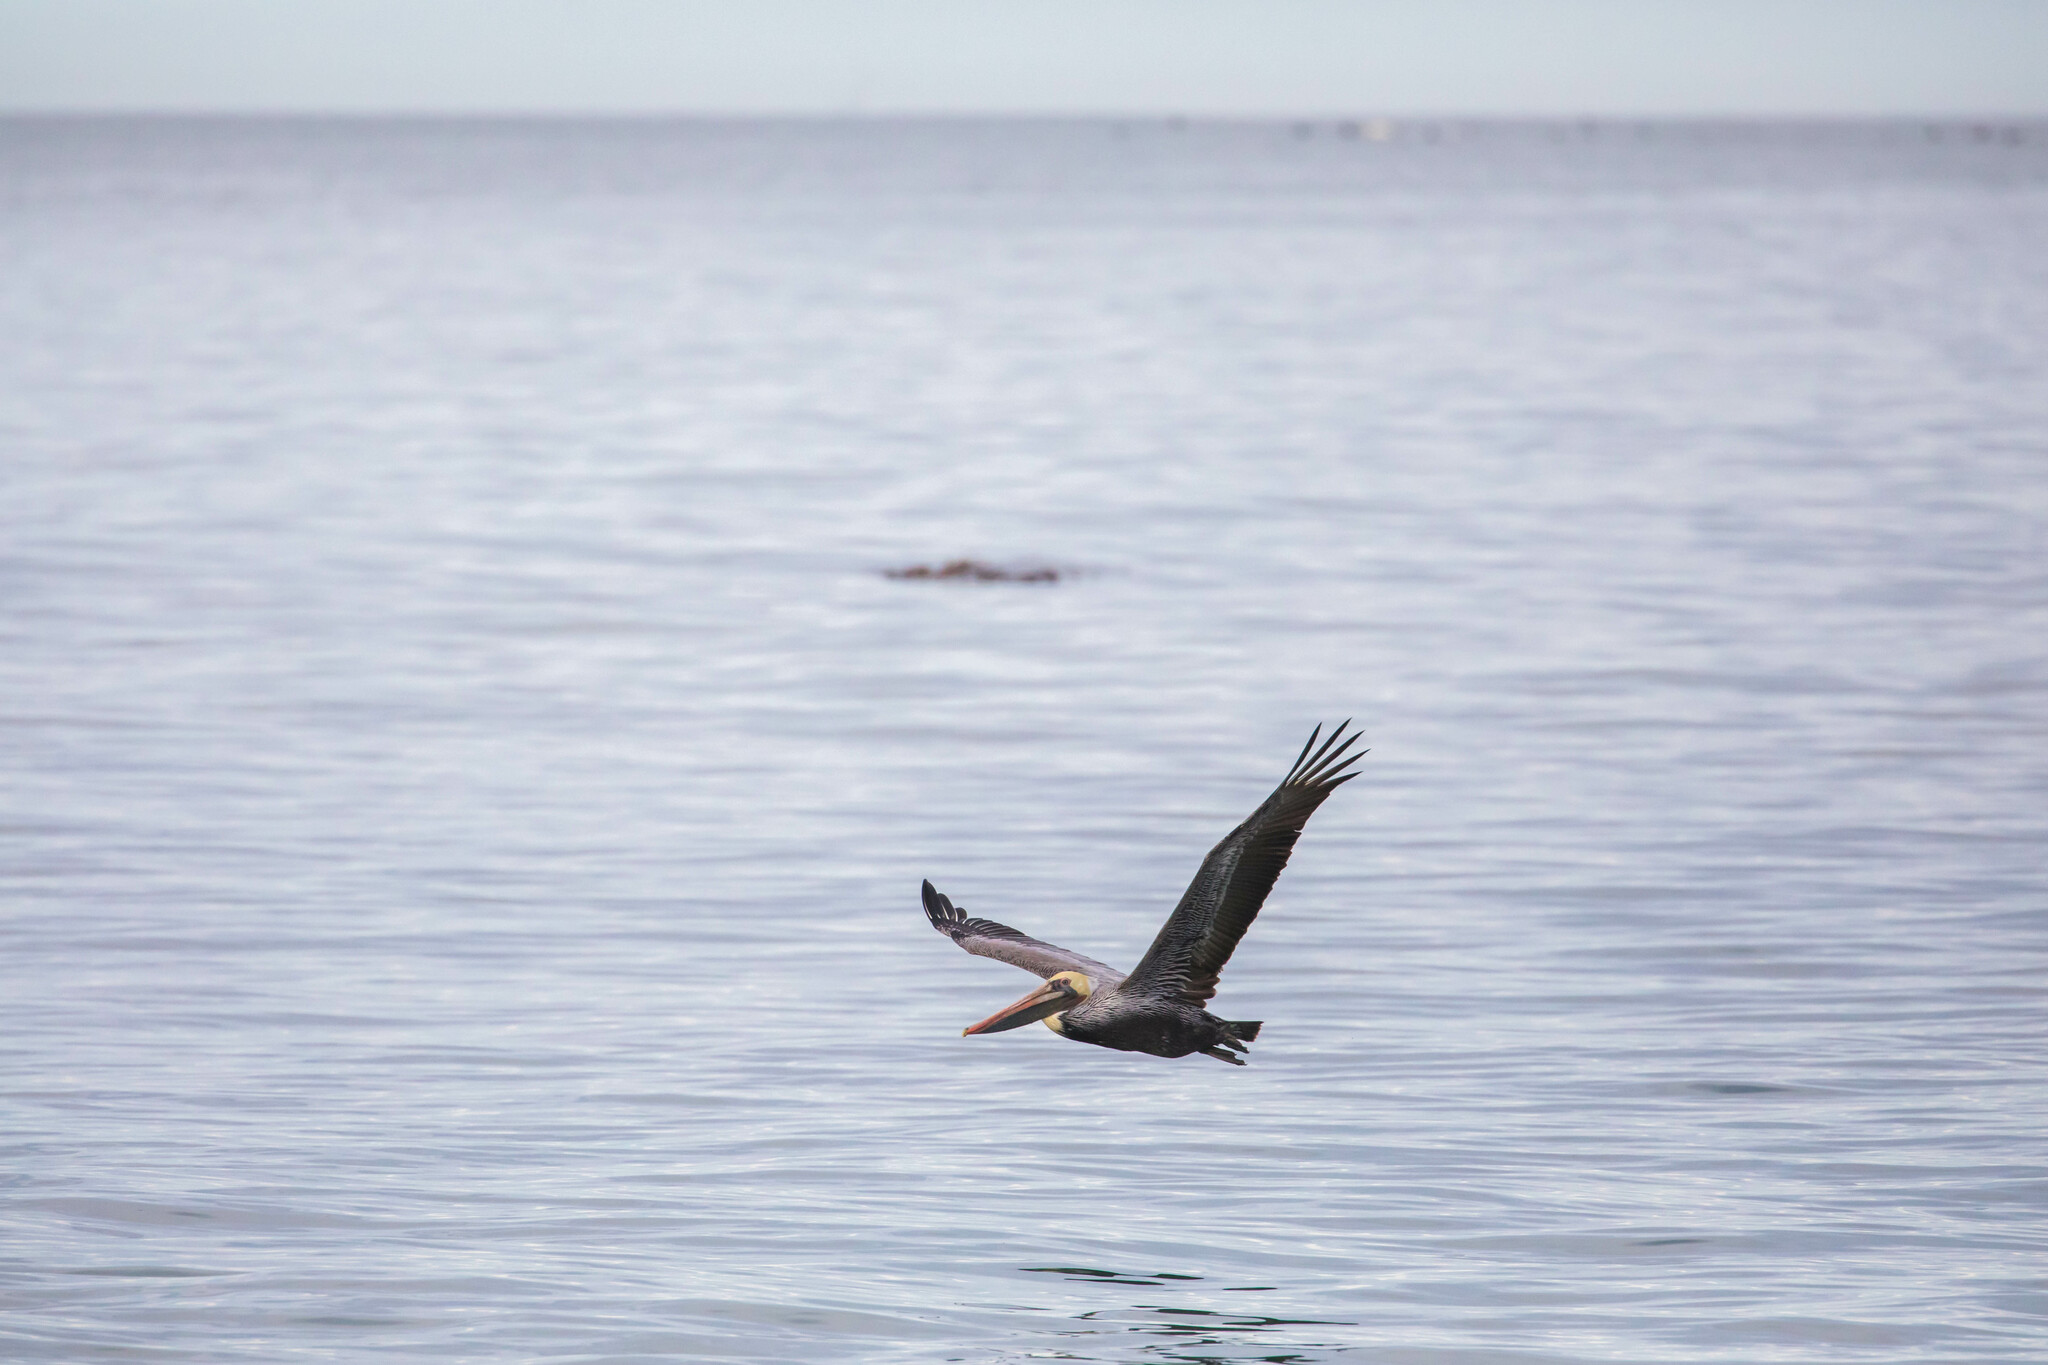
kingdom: Animalia
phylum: Chordata
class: Aves
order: Pelecaniformes
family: Pelecanidae
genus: Pelecanus
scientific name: Pelecanus occidentalis
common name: Brown pelican
